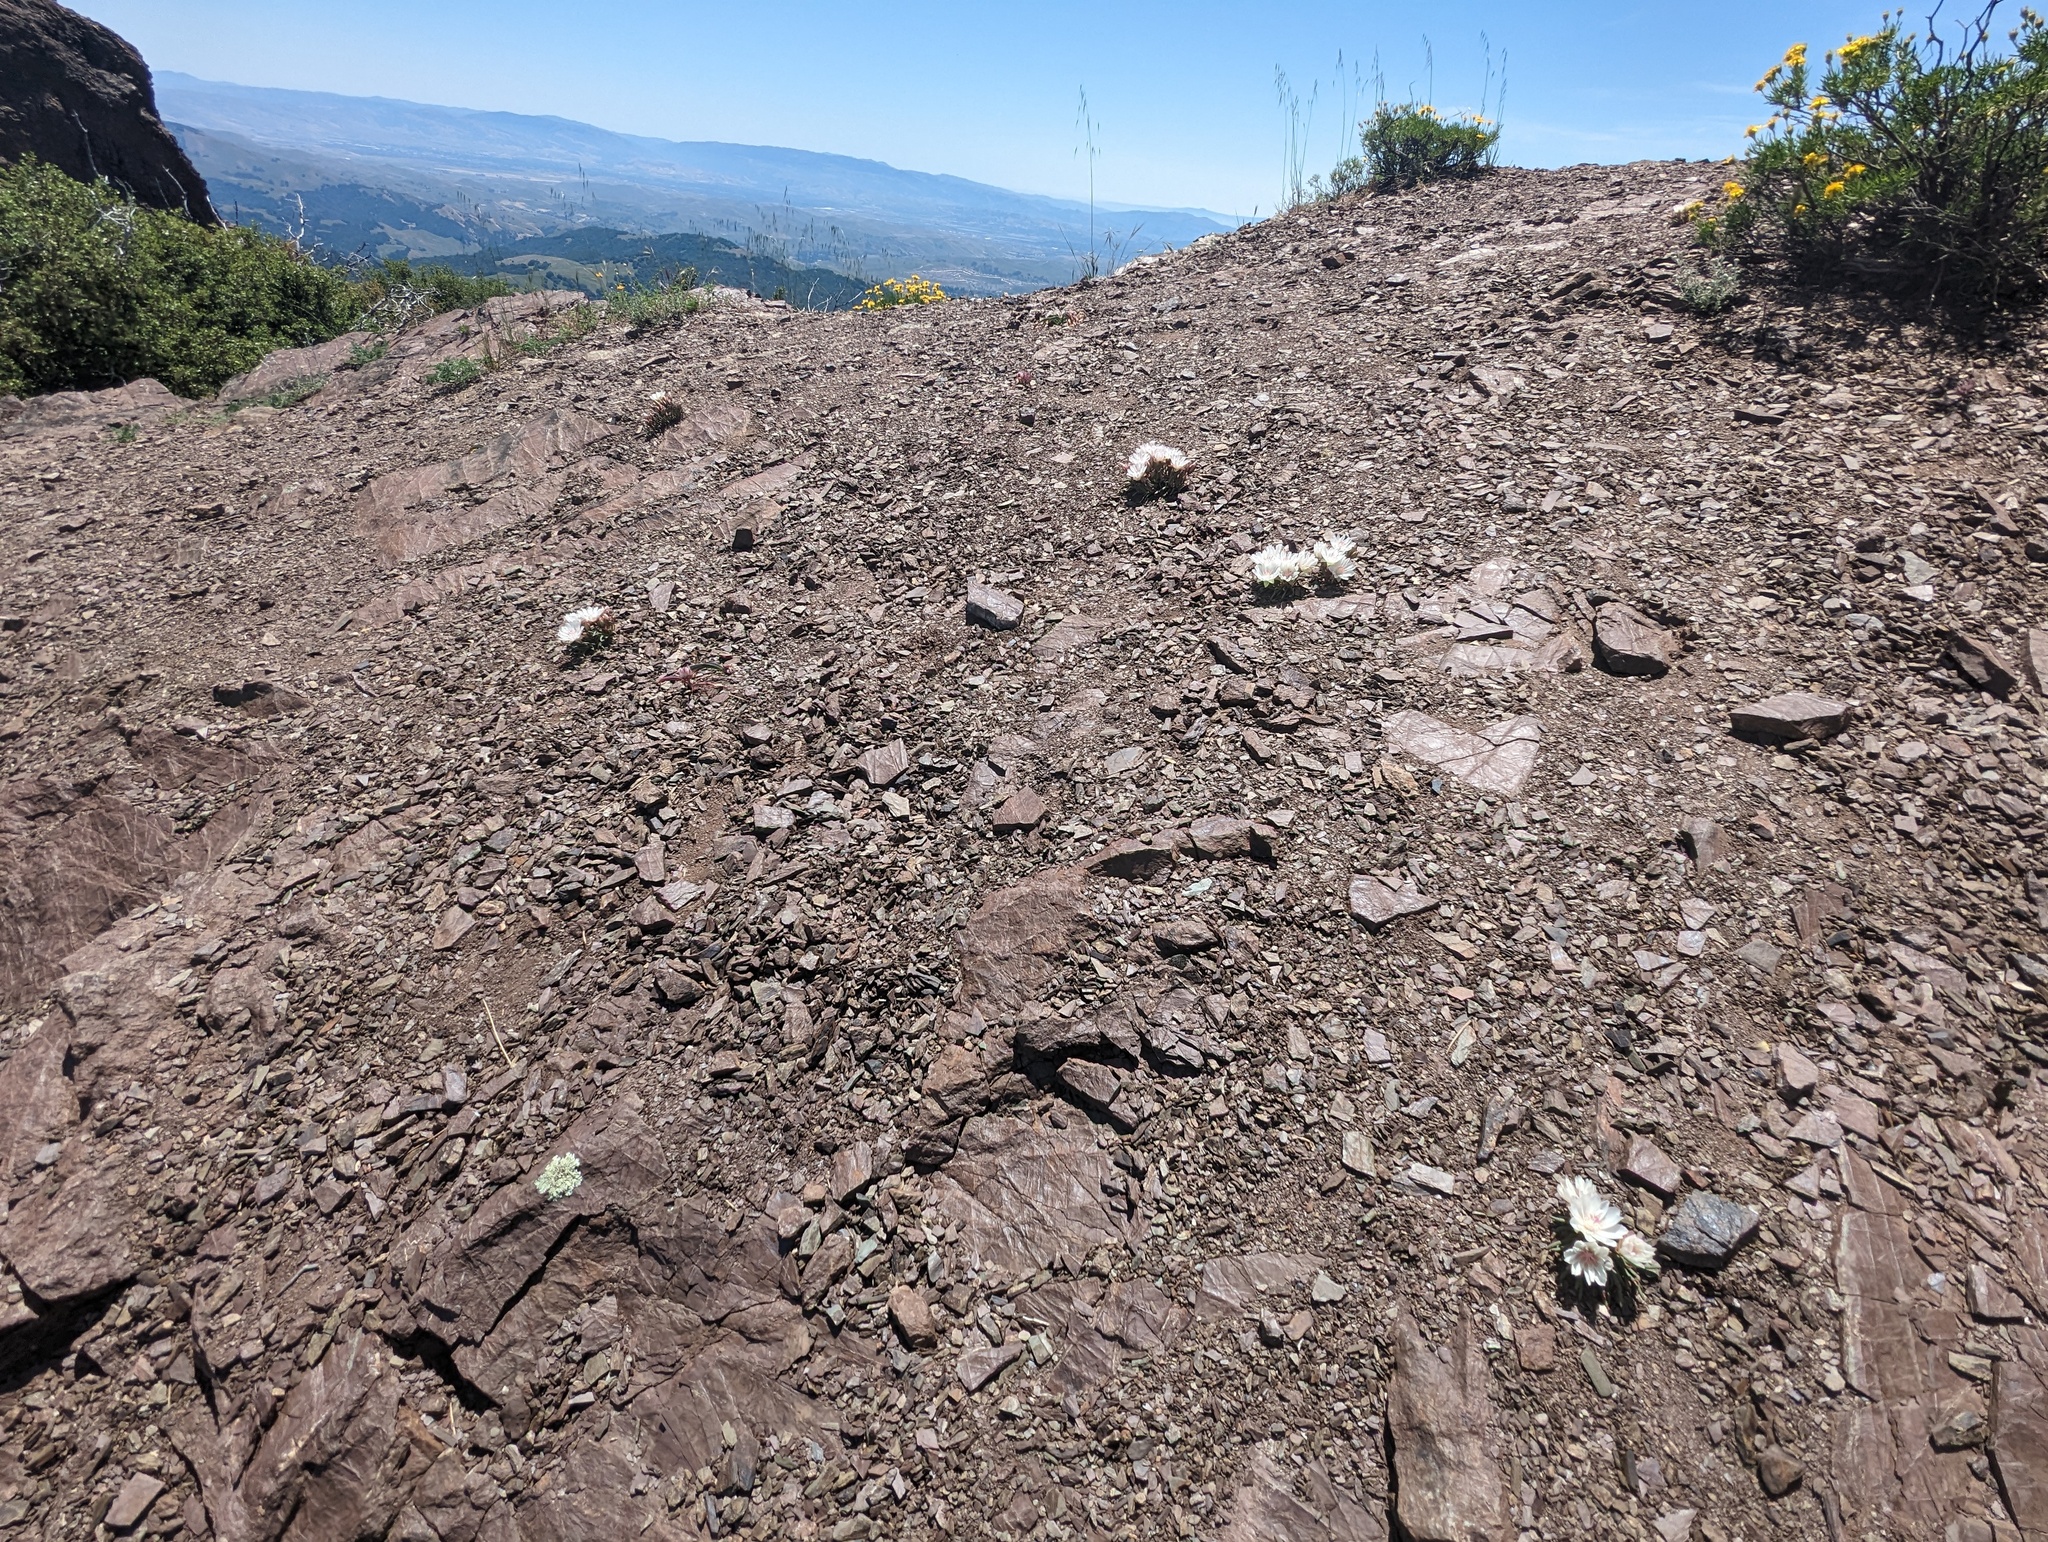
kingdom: Plantae
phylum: Tracheophyta
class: Magnoliopsida
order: Caryophyllales
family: Montiaceae
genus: Lewisia
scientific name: Lewisia rediviva
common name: Bitter-root
